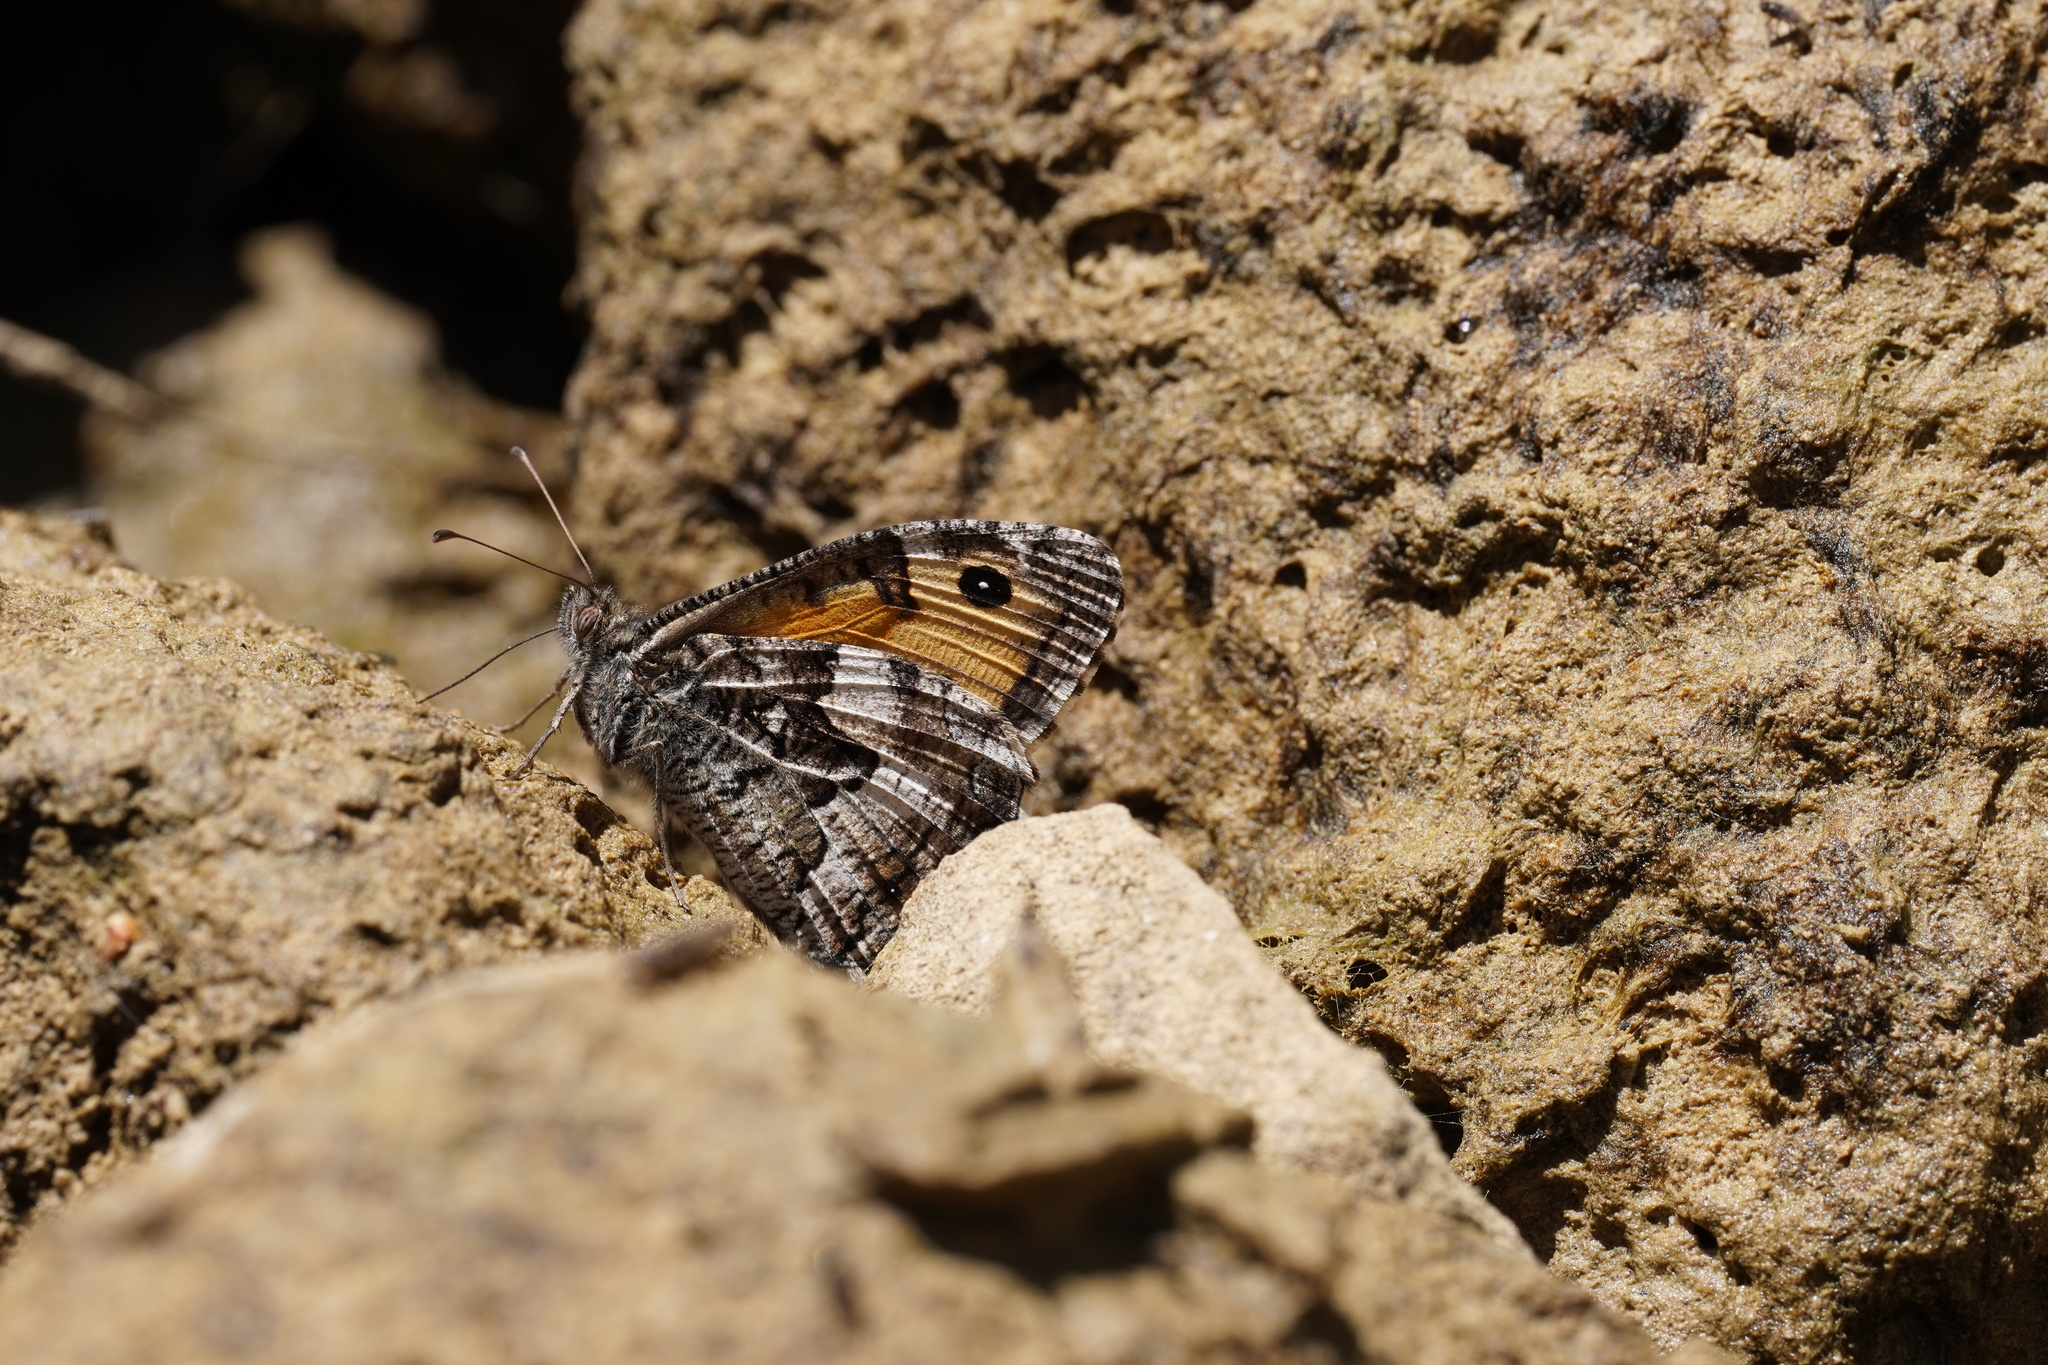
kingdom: Animalia
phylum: Arthropoda
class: Insecta
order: Lepidoptera
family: Nymphalidae
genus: Hipparchia
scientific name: Hipparchia semele
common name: Grayling
